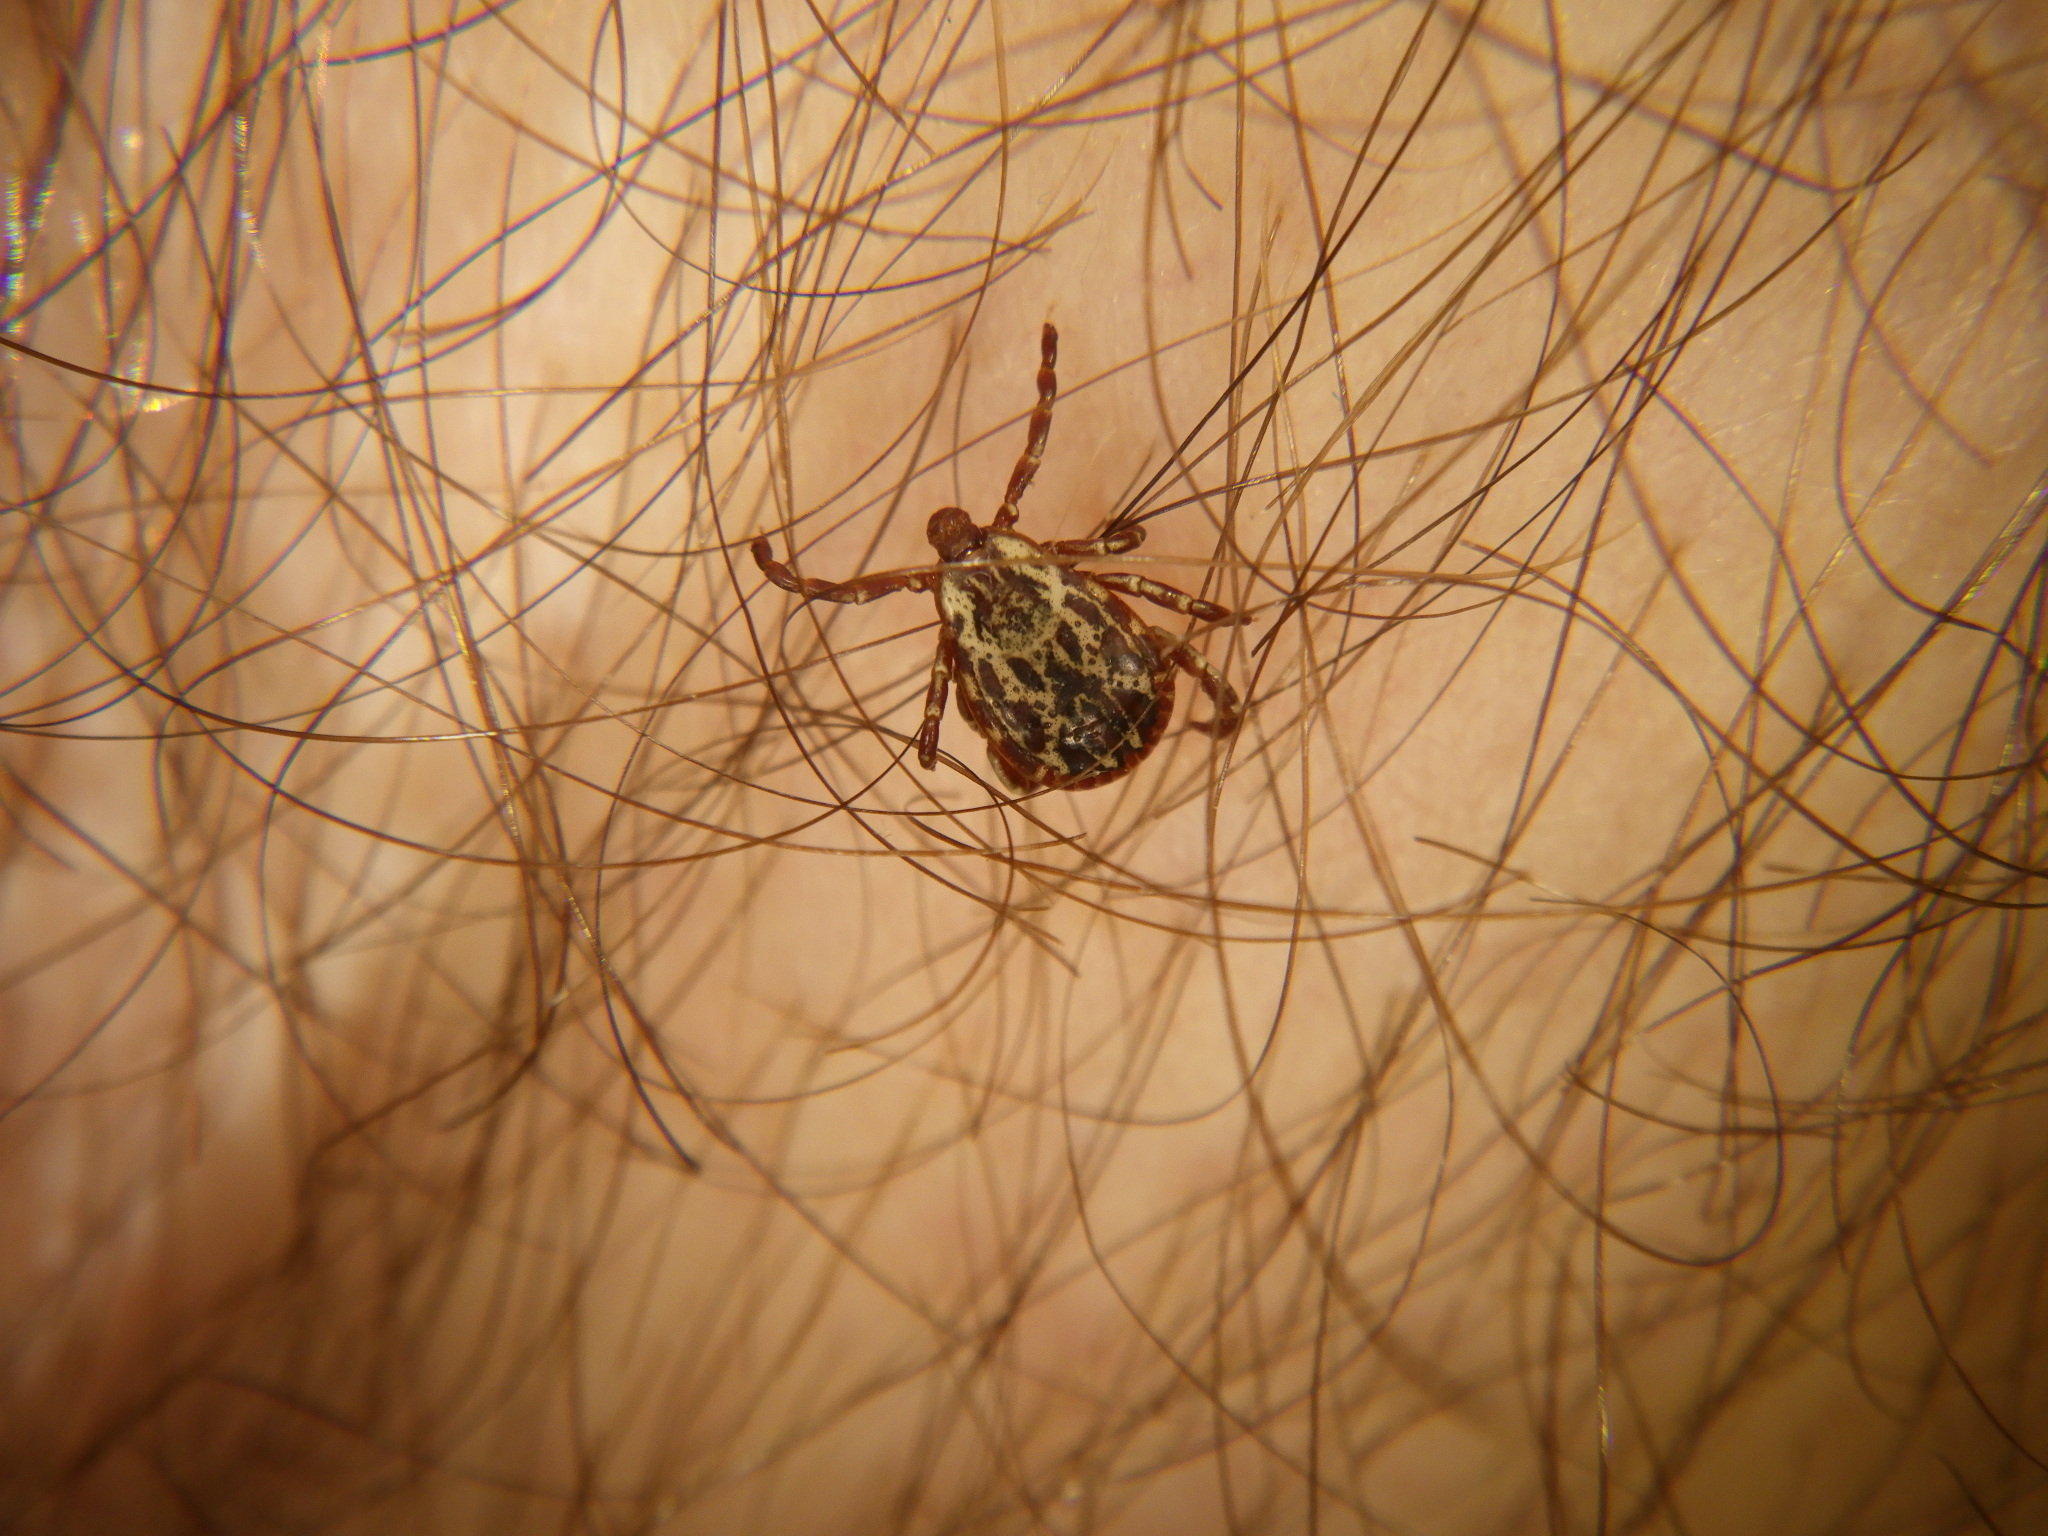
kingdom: Animalia
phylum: Arthropoda
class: Arachnida
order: Ixodida
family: Ixodidae
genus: Dermacentor
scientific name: Dermacentor variabilis
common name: American dog tick
